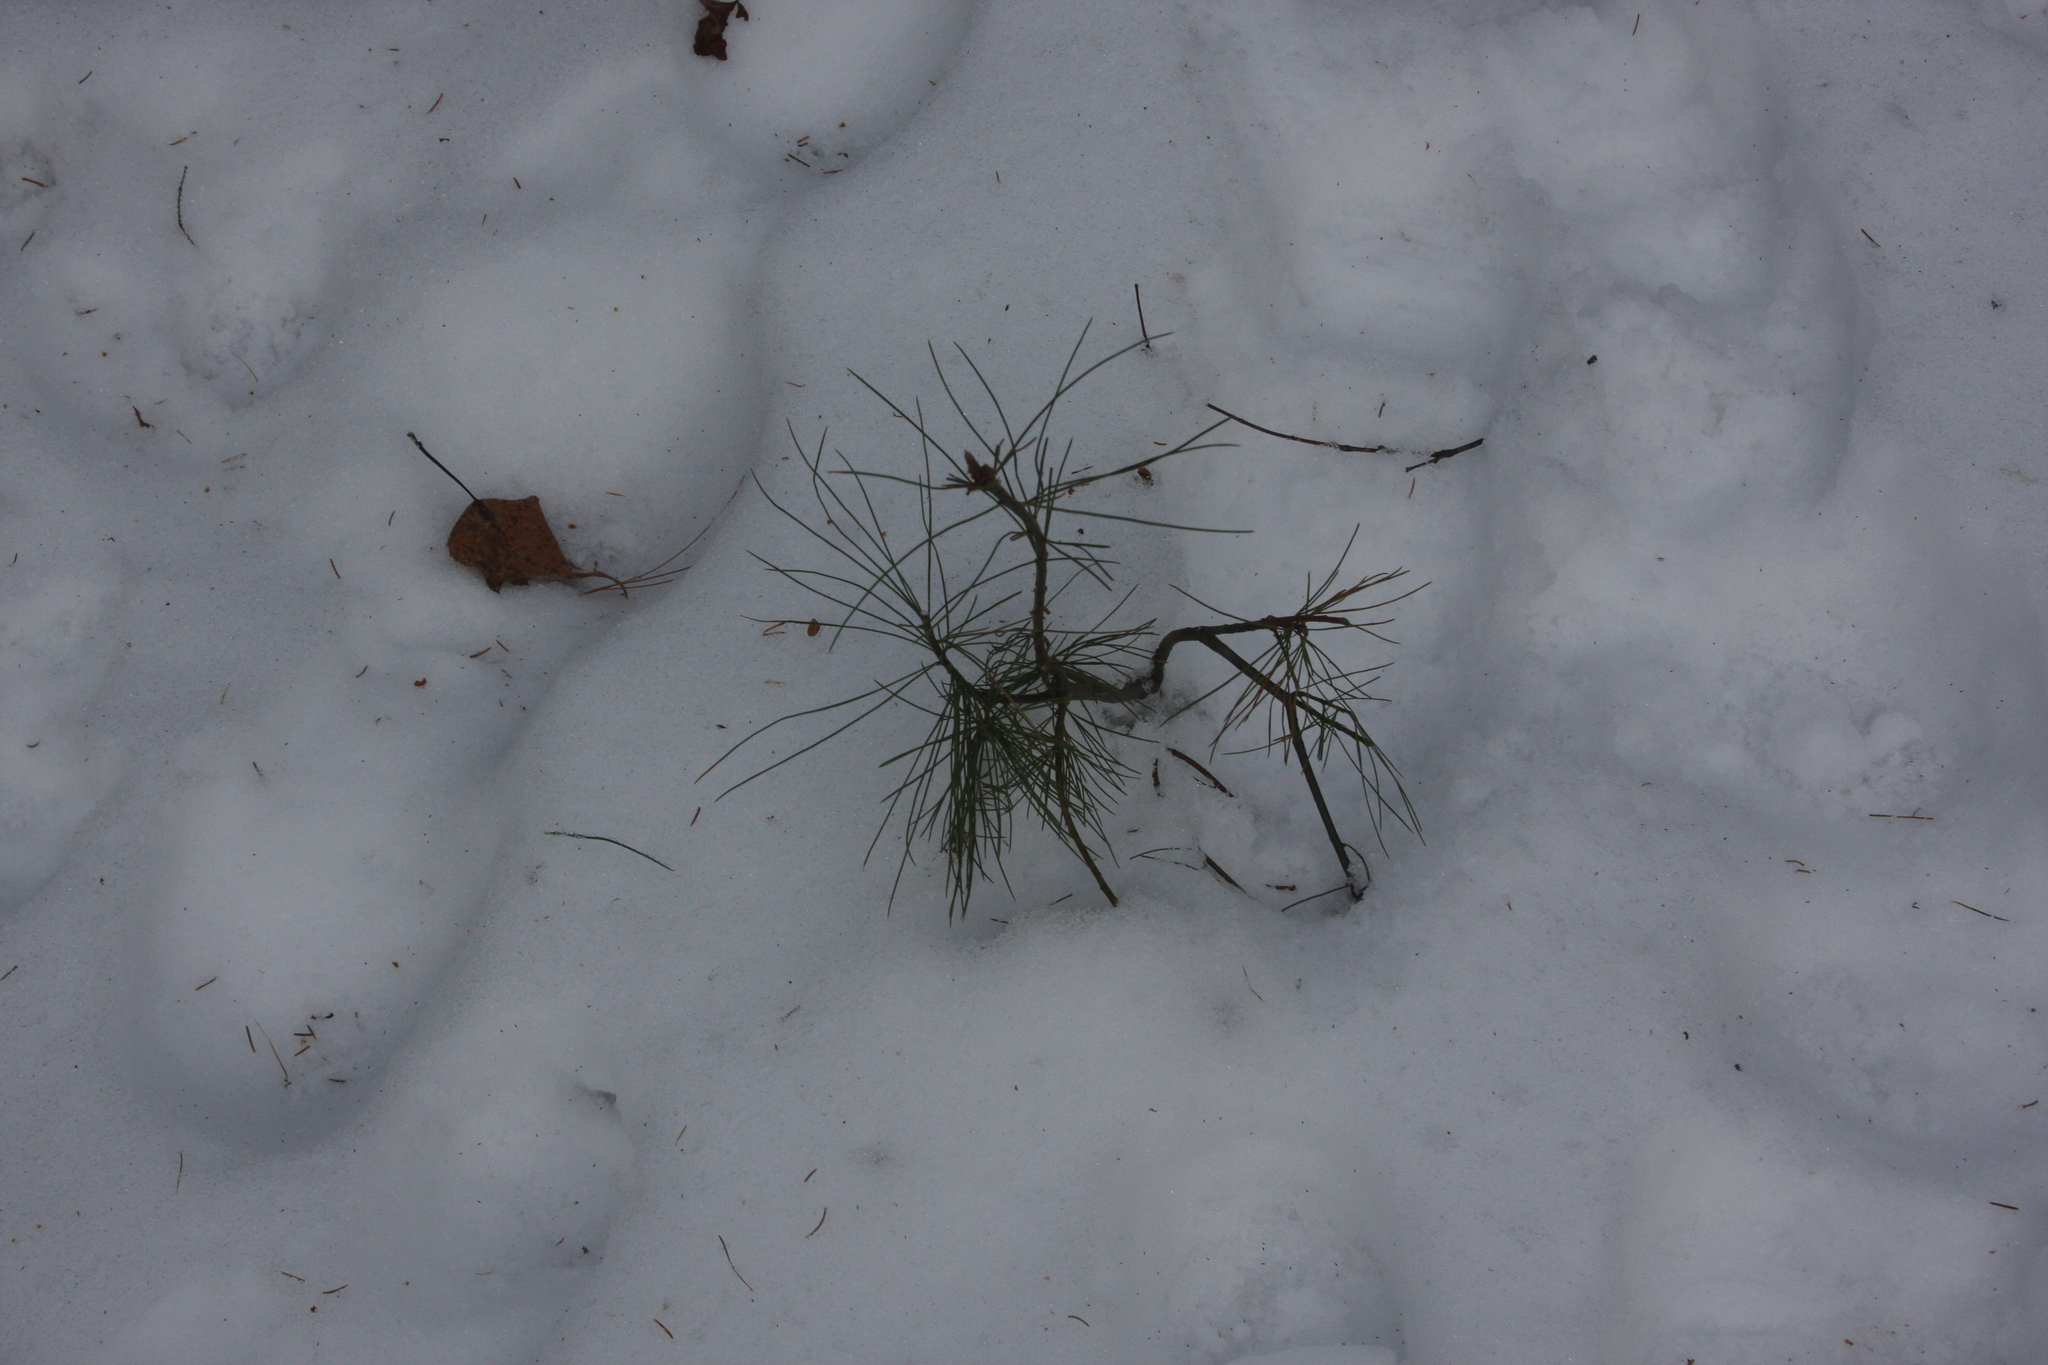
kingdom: Plantae
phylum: Tracheophyta
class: Pinopsida
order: Pinales
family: Pinaceae
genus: Pinus
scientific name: Pinus strobus
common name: Weymouth pine
